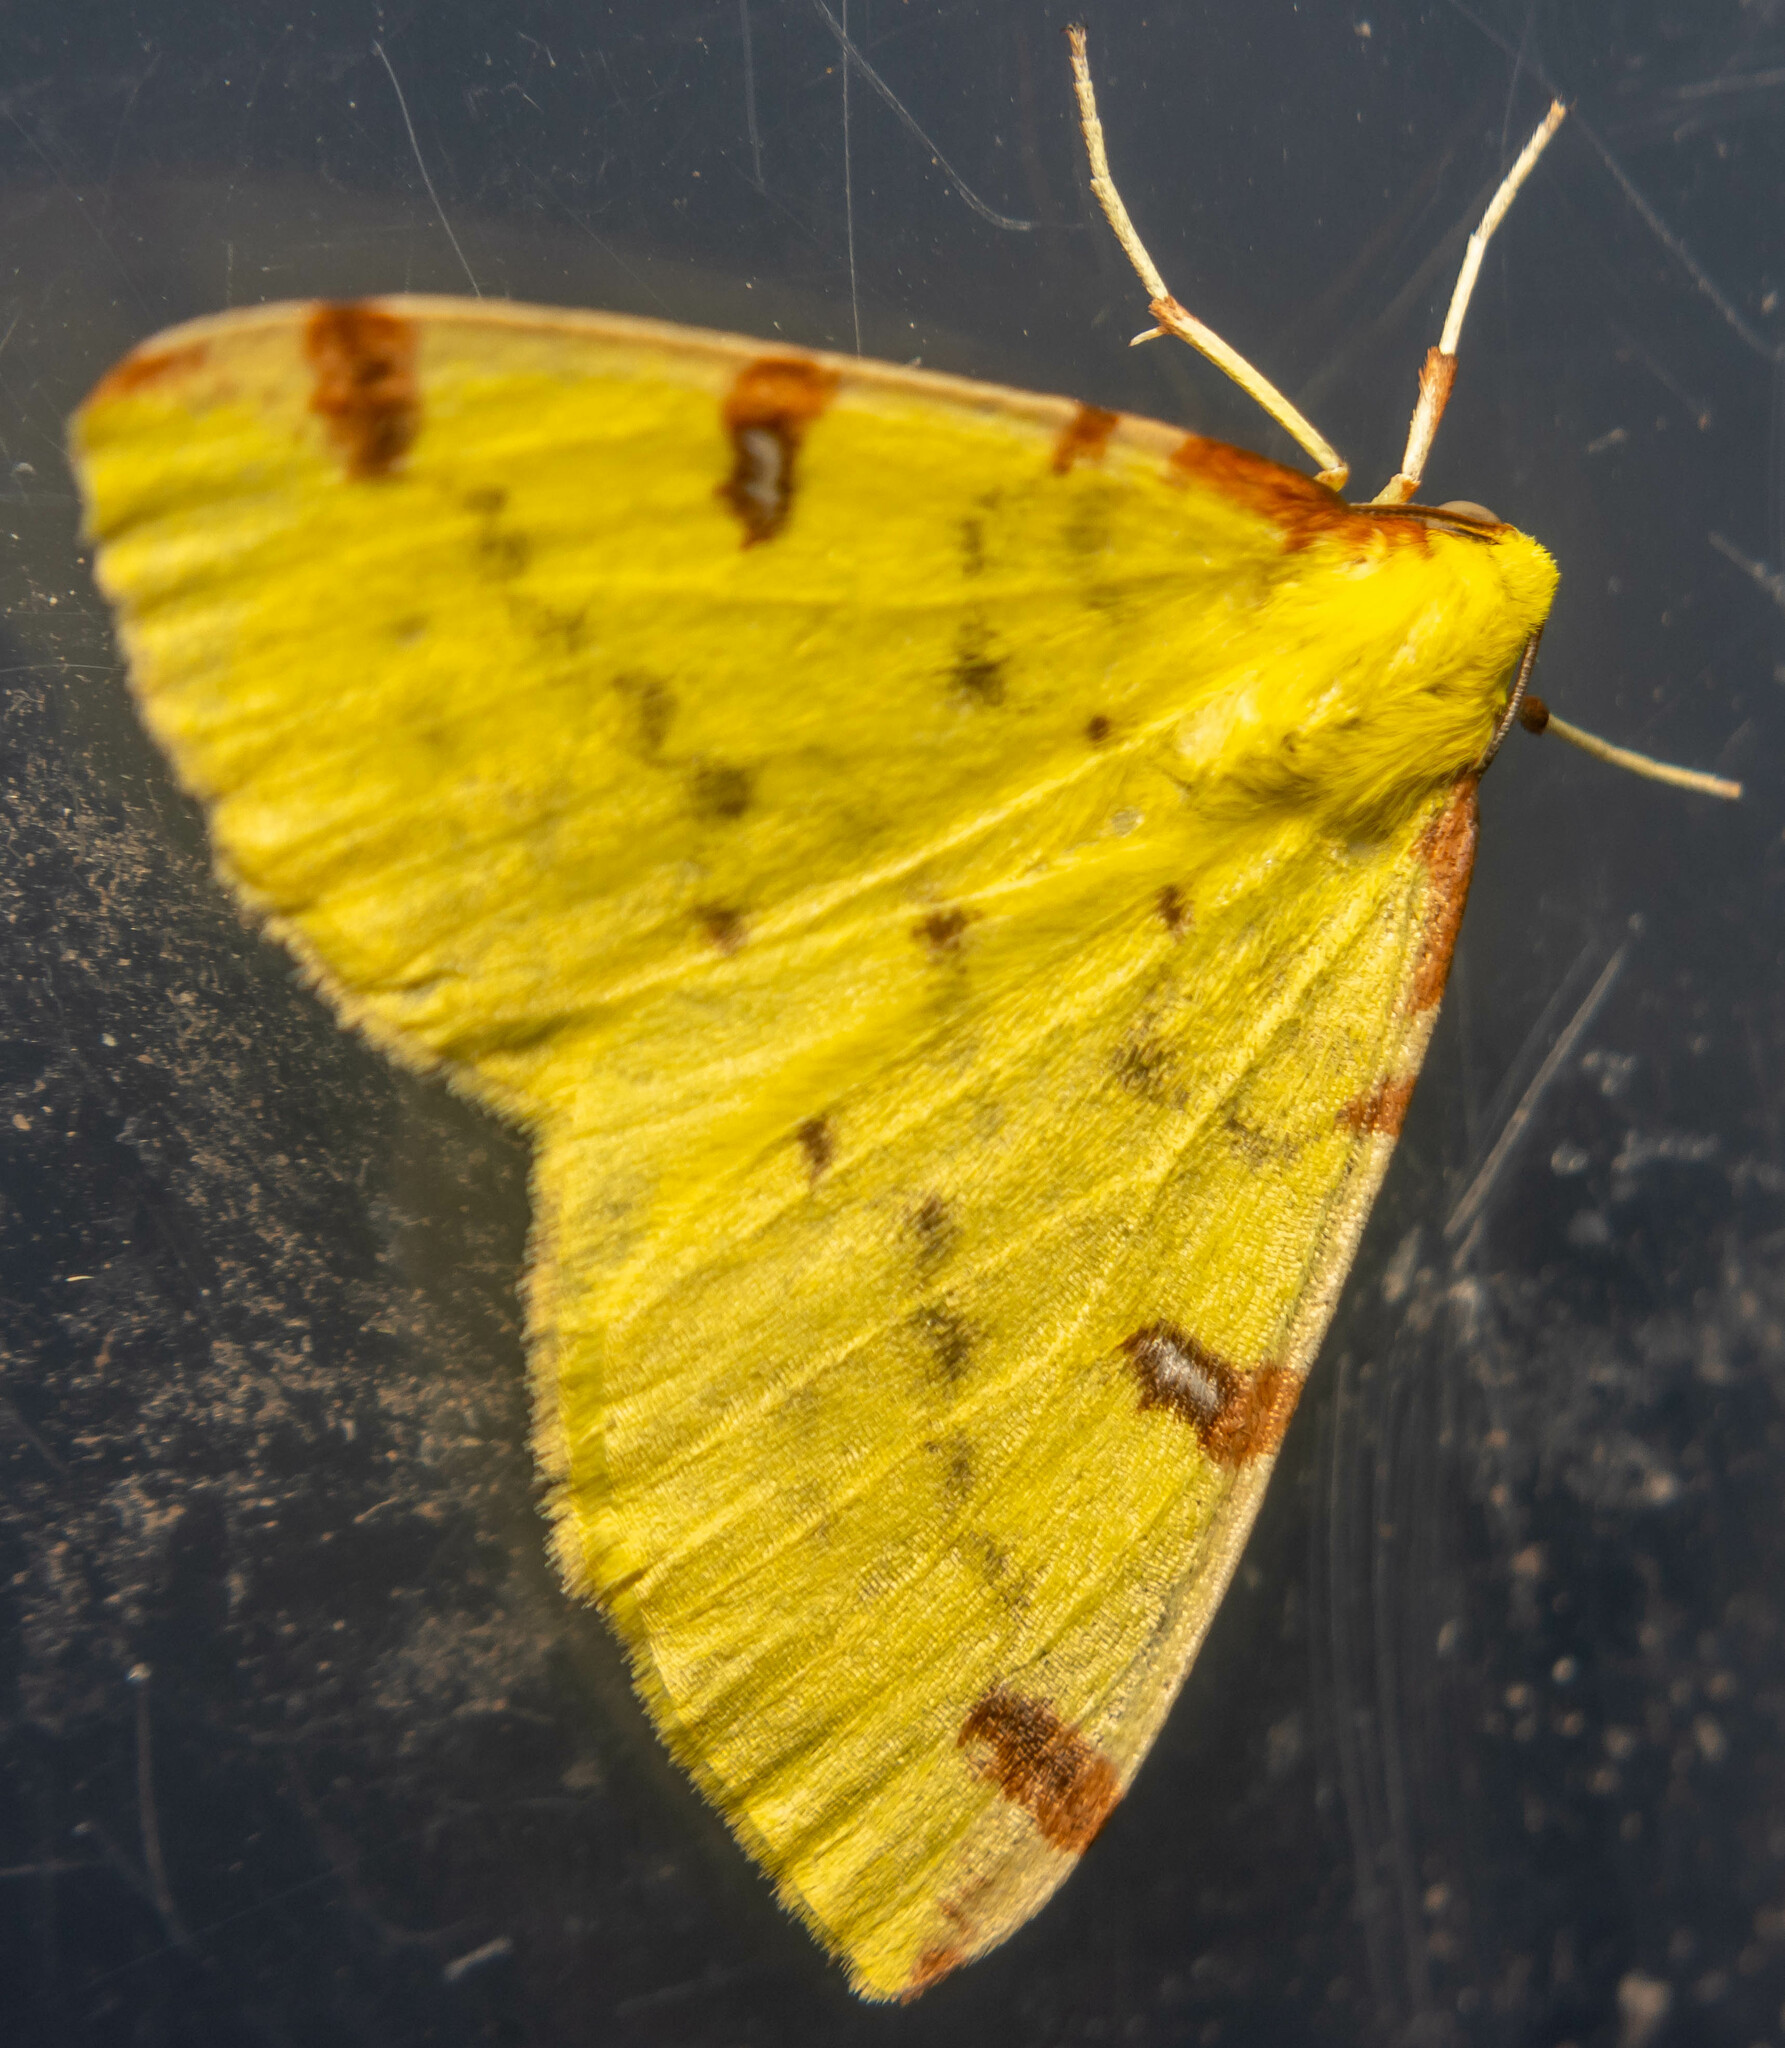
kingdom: Animalia
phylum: Arthropoda
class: Insecta
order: Lepidoptera
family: Geometridae
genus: Opisthograptis
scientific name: Opisthograptis luteolata
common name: Brimstone moth
